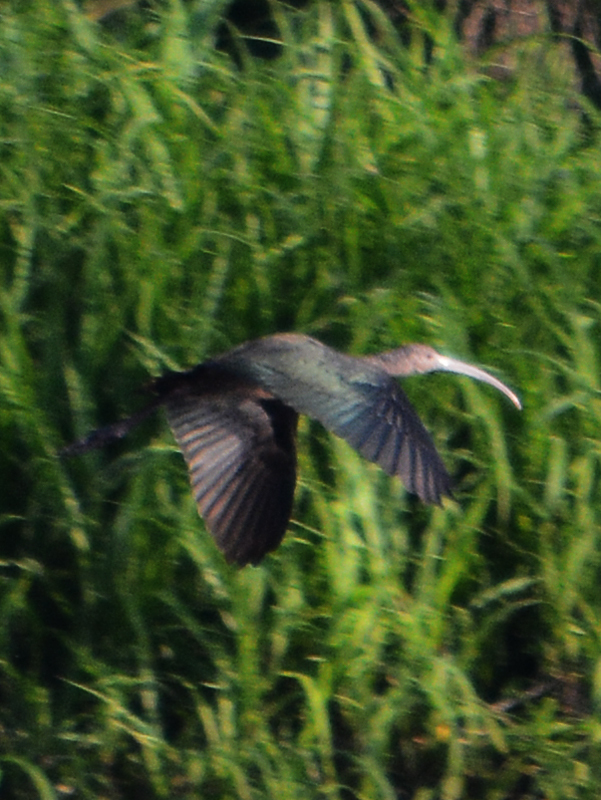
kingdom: Animalia
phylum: Chordata
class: Aves
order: Pelecaniformes
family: Threskiornithidae
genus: Plegadis
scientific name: Plegadis chihi
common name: White-faced ibis
